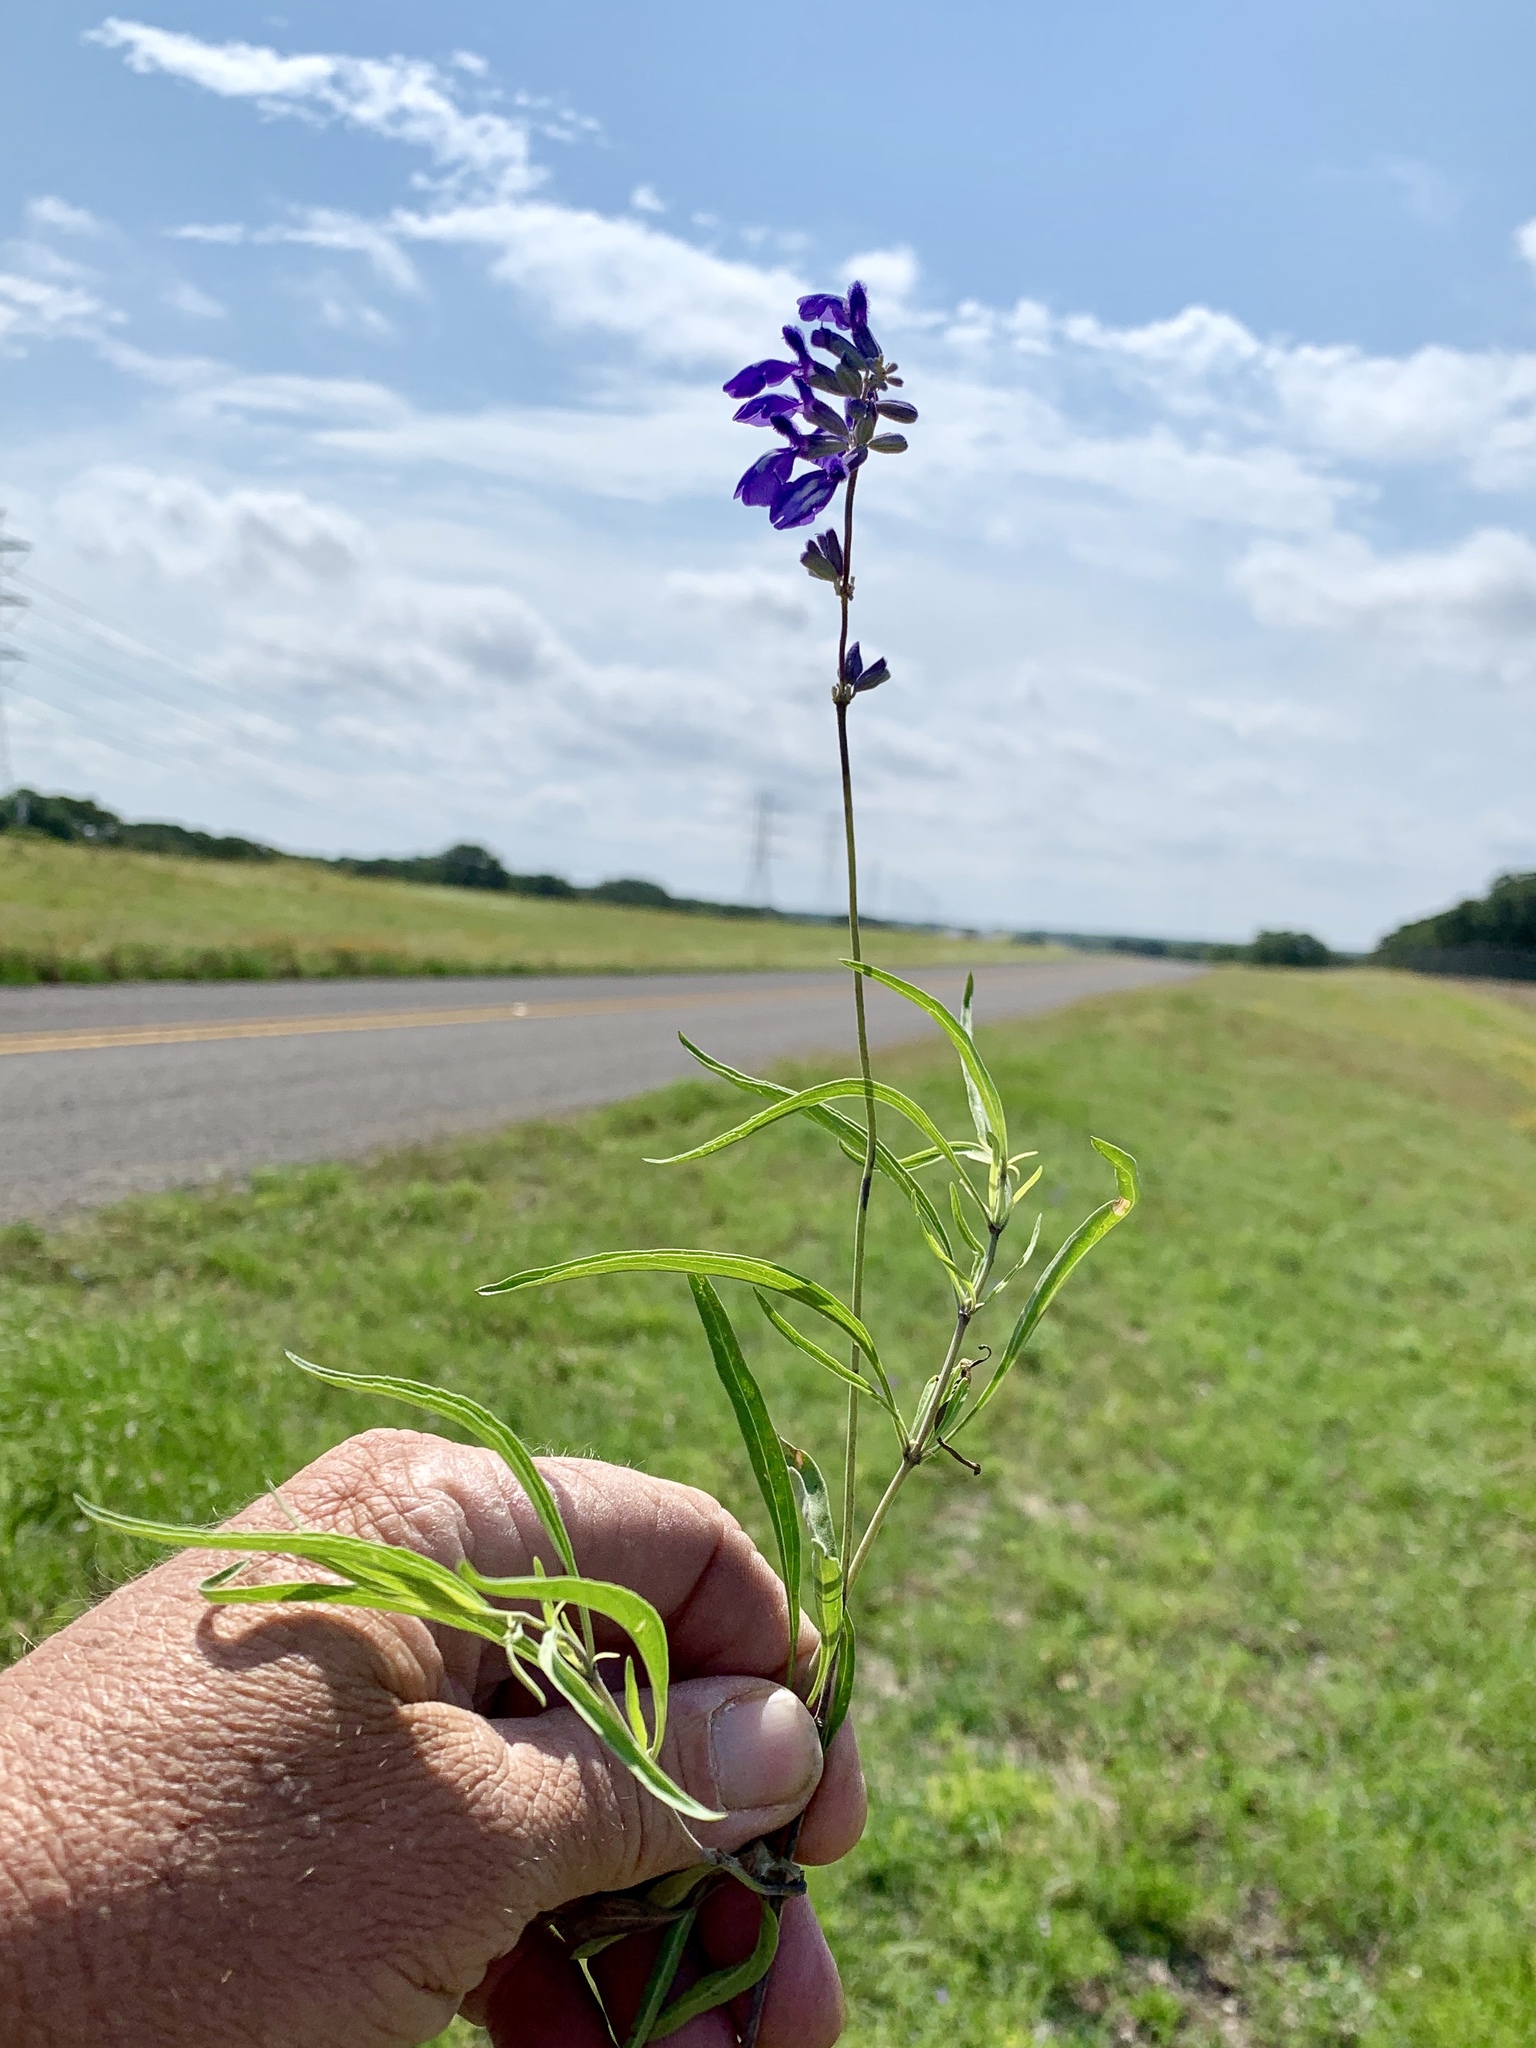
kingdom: Plantae
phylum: Tracheophyta
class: Magnoliopsida
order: Lamiales
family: Lamiaceae
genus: Salvia
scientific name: Salvia farinacea
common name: Mealy sage
